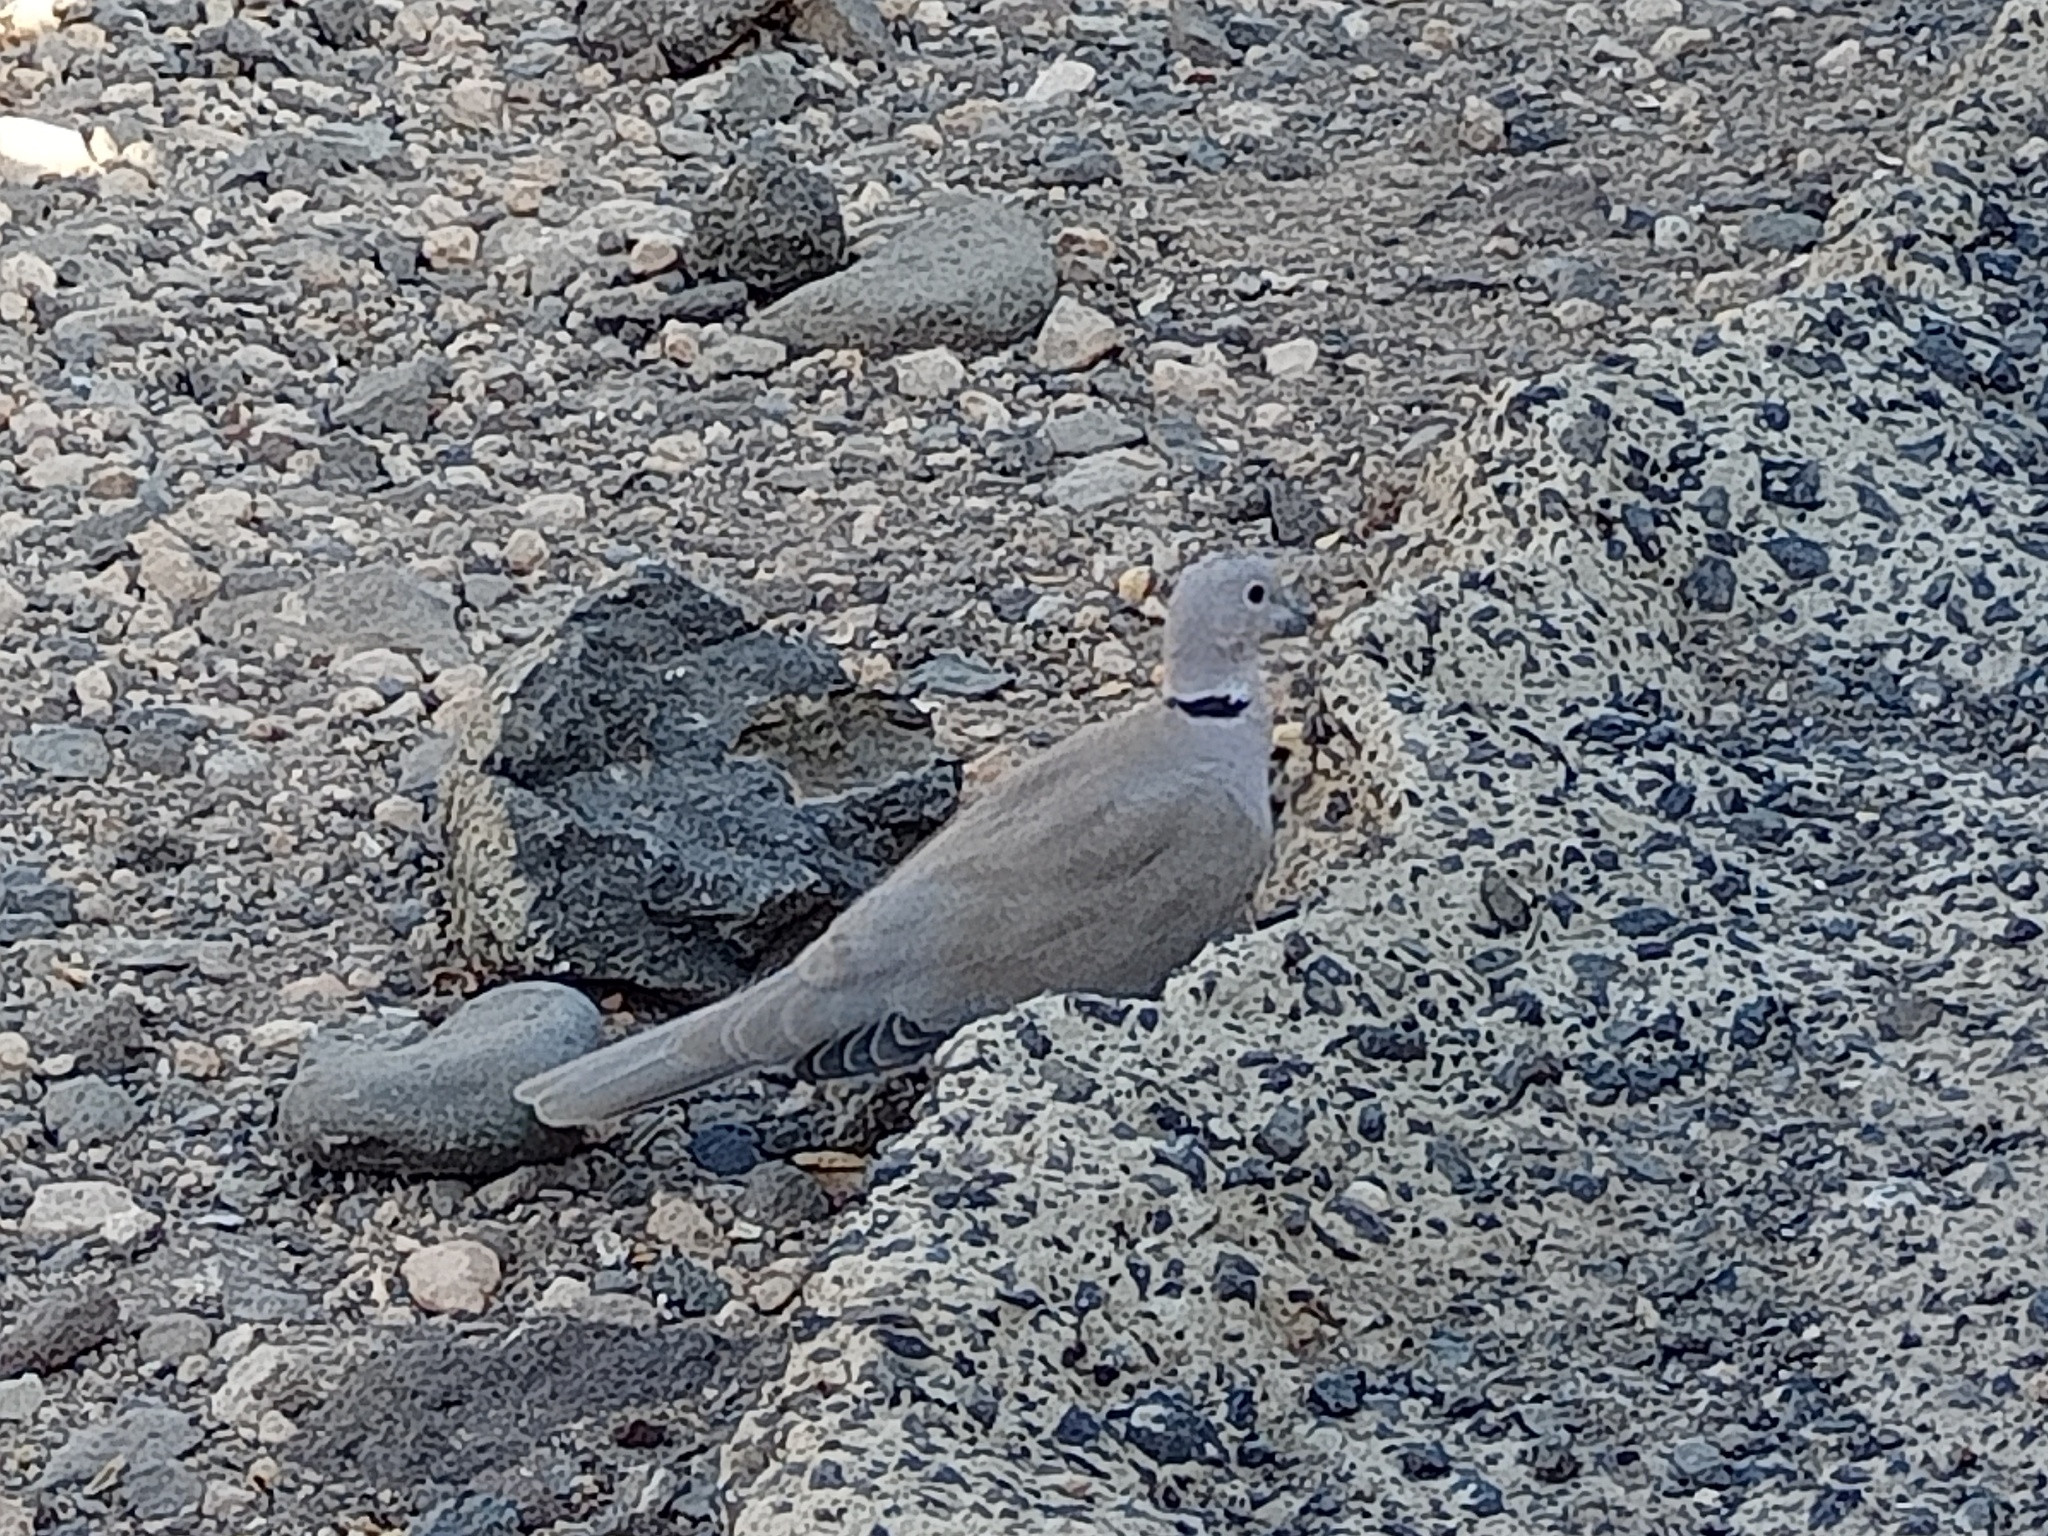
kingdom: Animalia
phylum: Chordata
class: Aves
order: Columbiformes
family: Columbidae
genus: Streptopelia
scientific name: Streptopelia decaocto
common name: Eurasian collared dove
